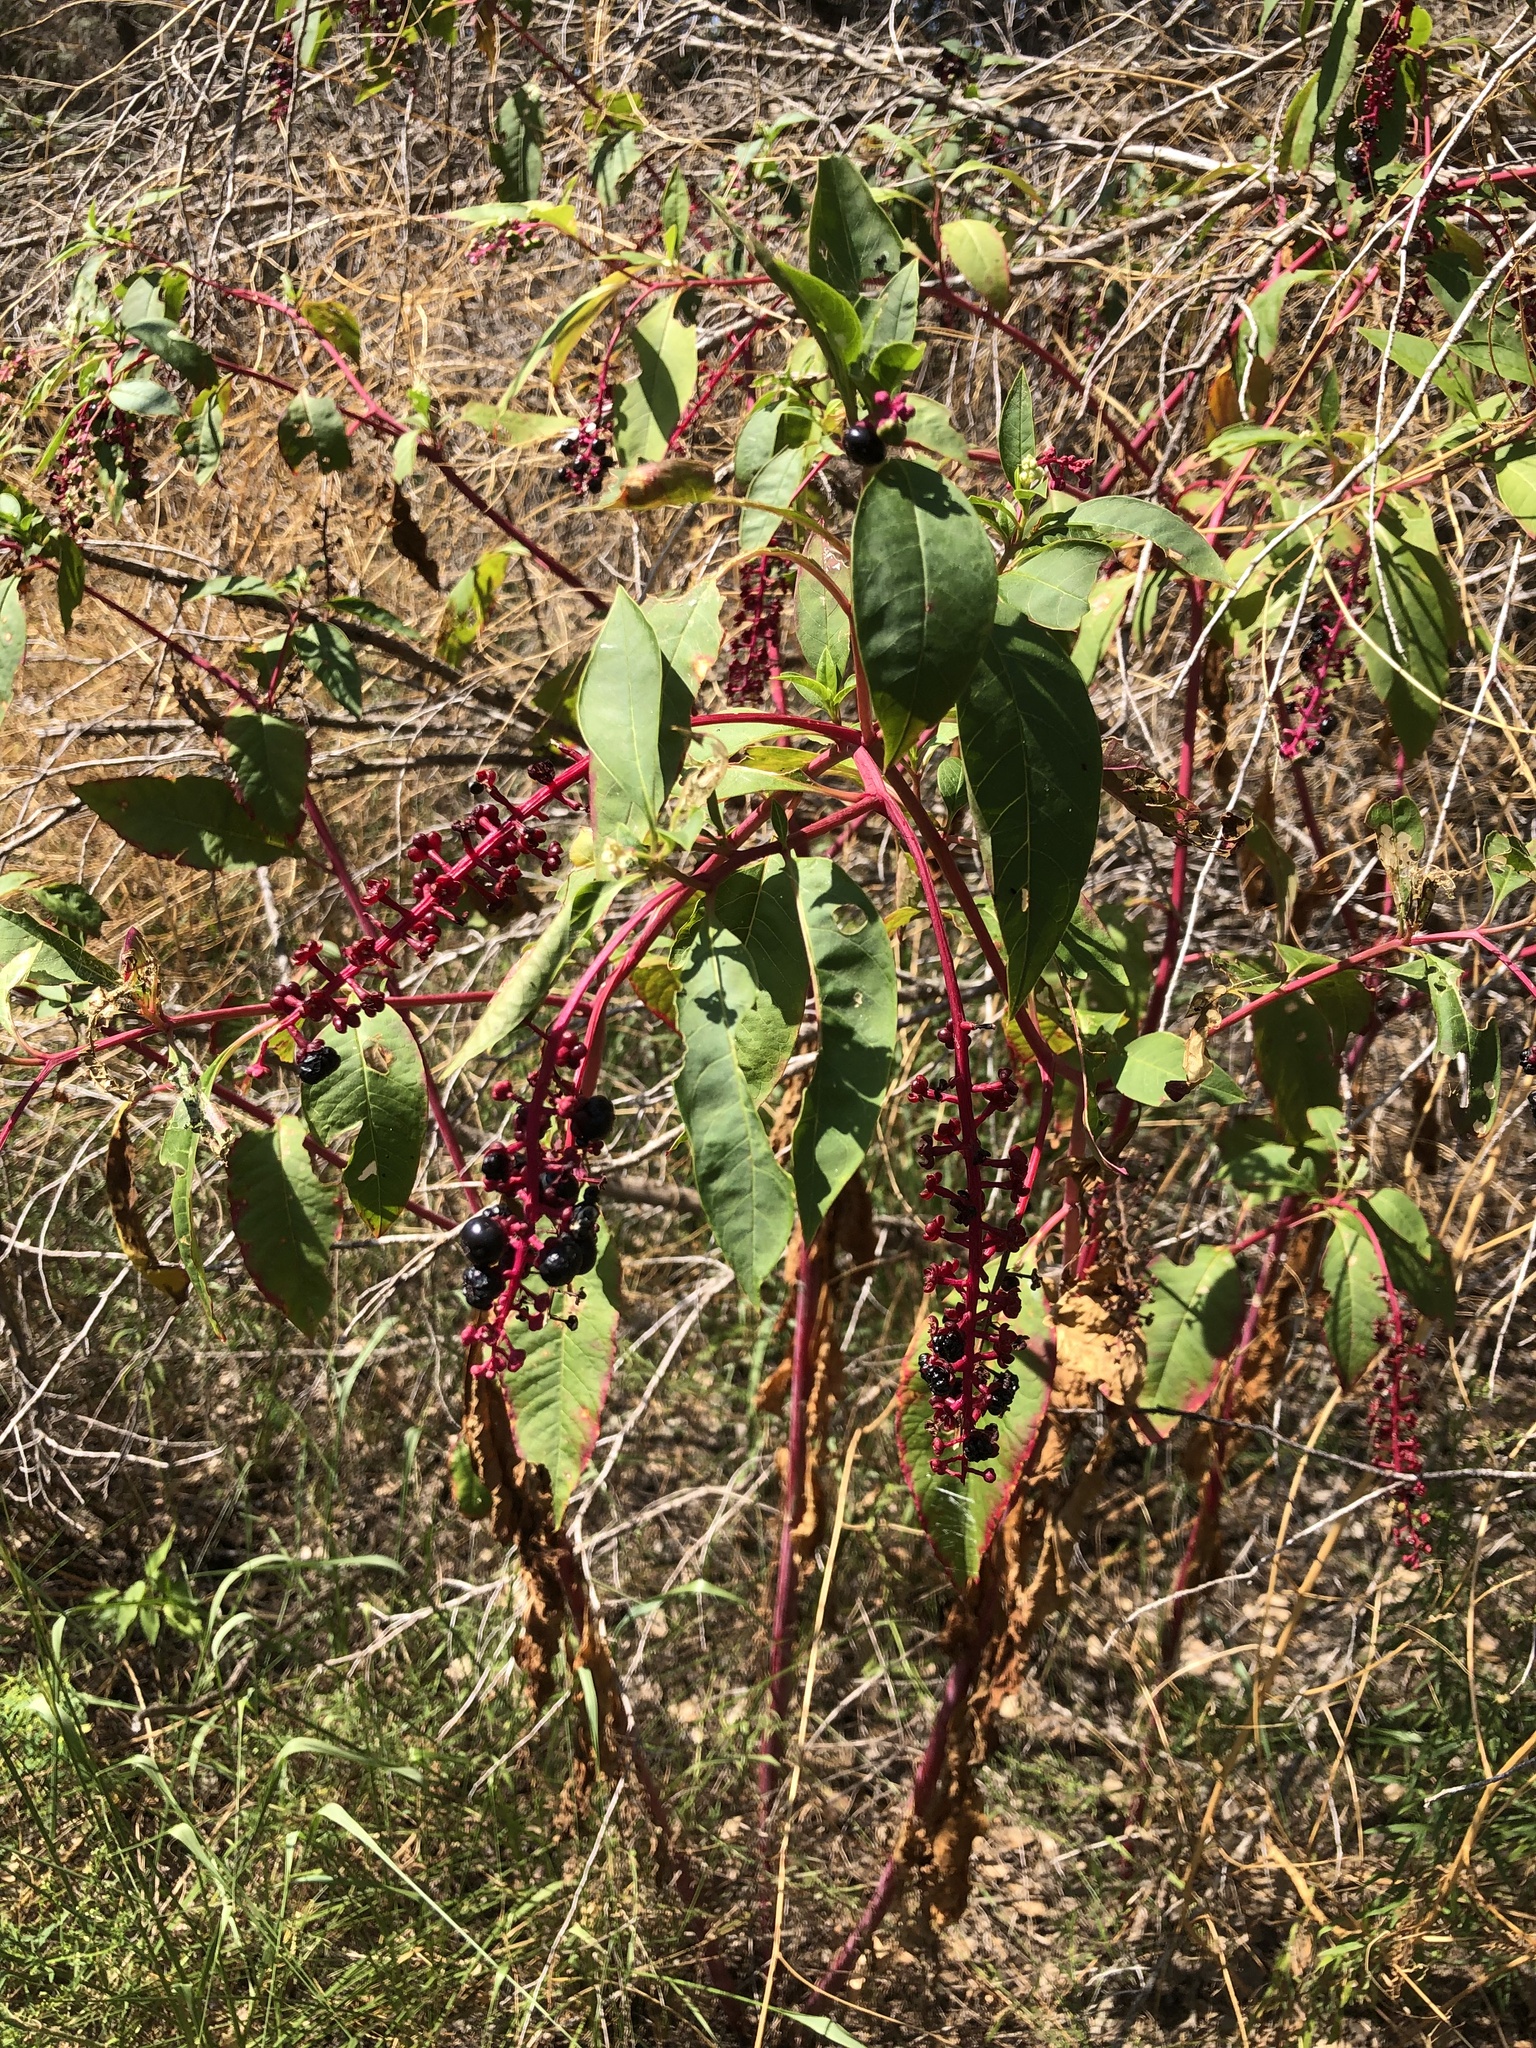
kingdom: Plantae
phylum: Tracheophyta
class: Magnoliopsida
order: Caryophyllales
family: Phytolaccaceae
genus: Phytolacca
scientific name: Phytolacca americana
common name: American pokeweed
